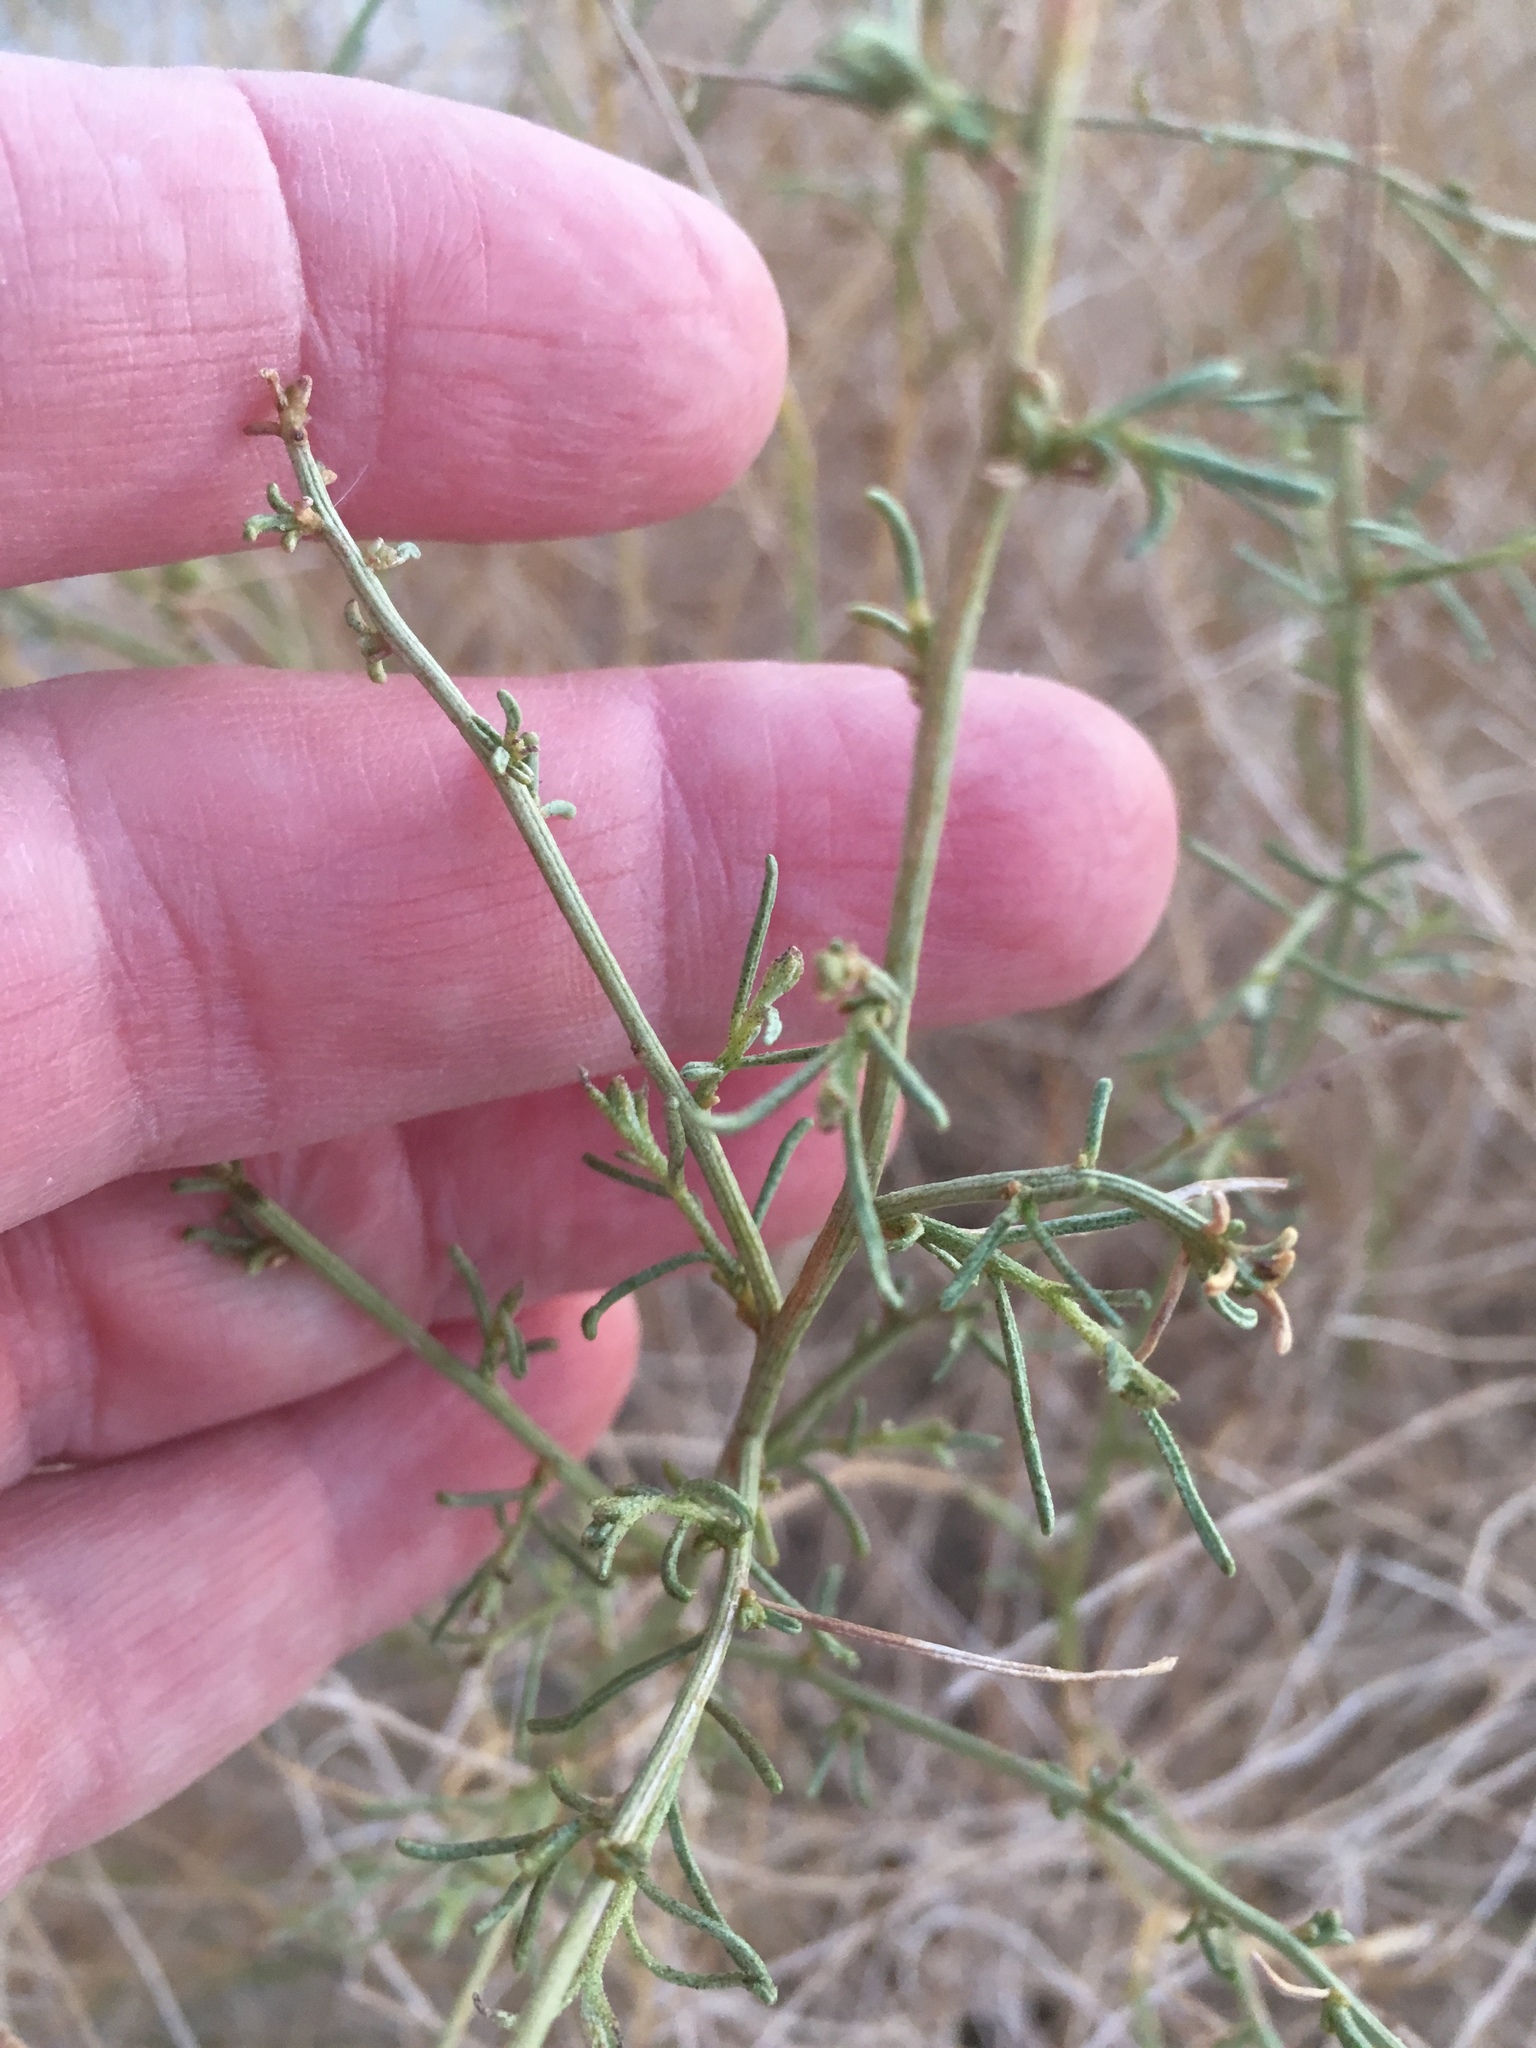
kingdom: Plantae
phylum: Tracheophyta
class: Magnoliopsida
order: Asterales
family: Asteraceae
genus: Ambrosia
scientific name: Ambrosia salsola
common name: Burrobrush
